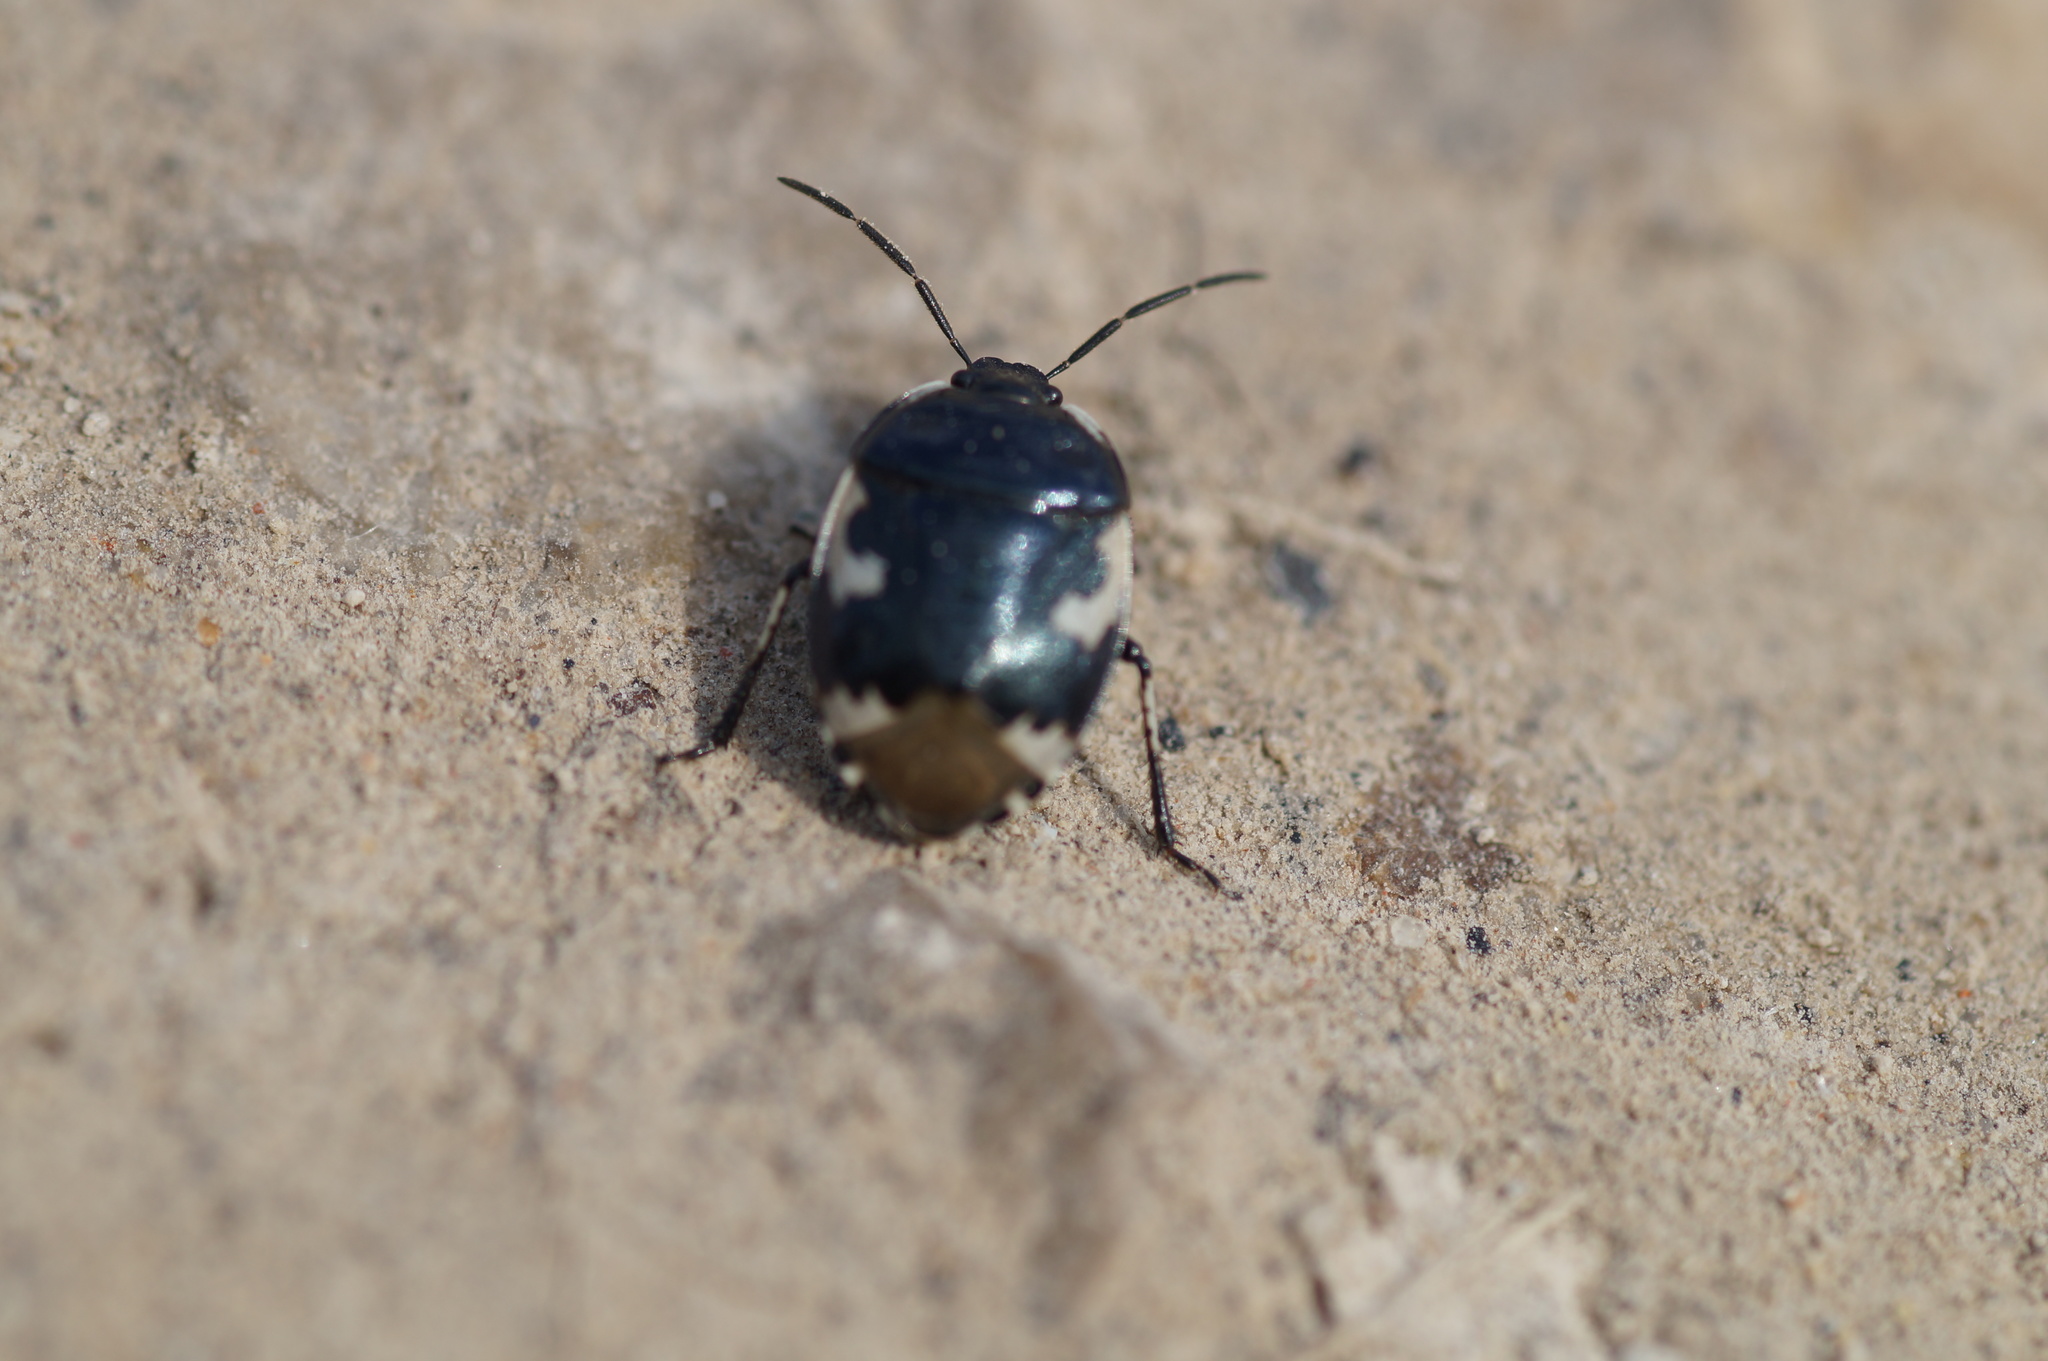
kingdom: Animalia
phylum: Arthropoda
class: Insecta
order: Hemiptera
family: Cydnidae
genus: Tritomegas
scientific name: Tritomegas bicolor
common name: Pied shieldbug
